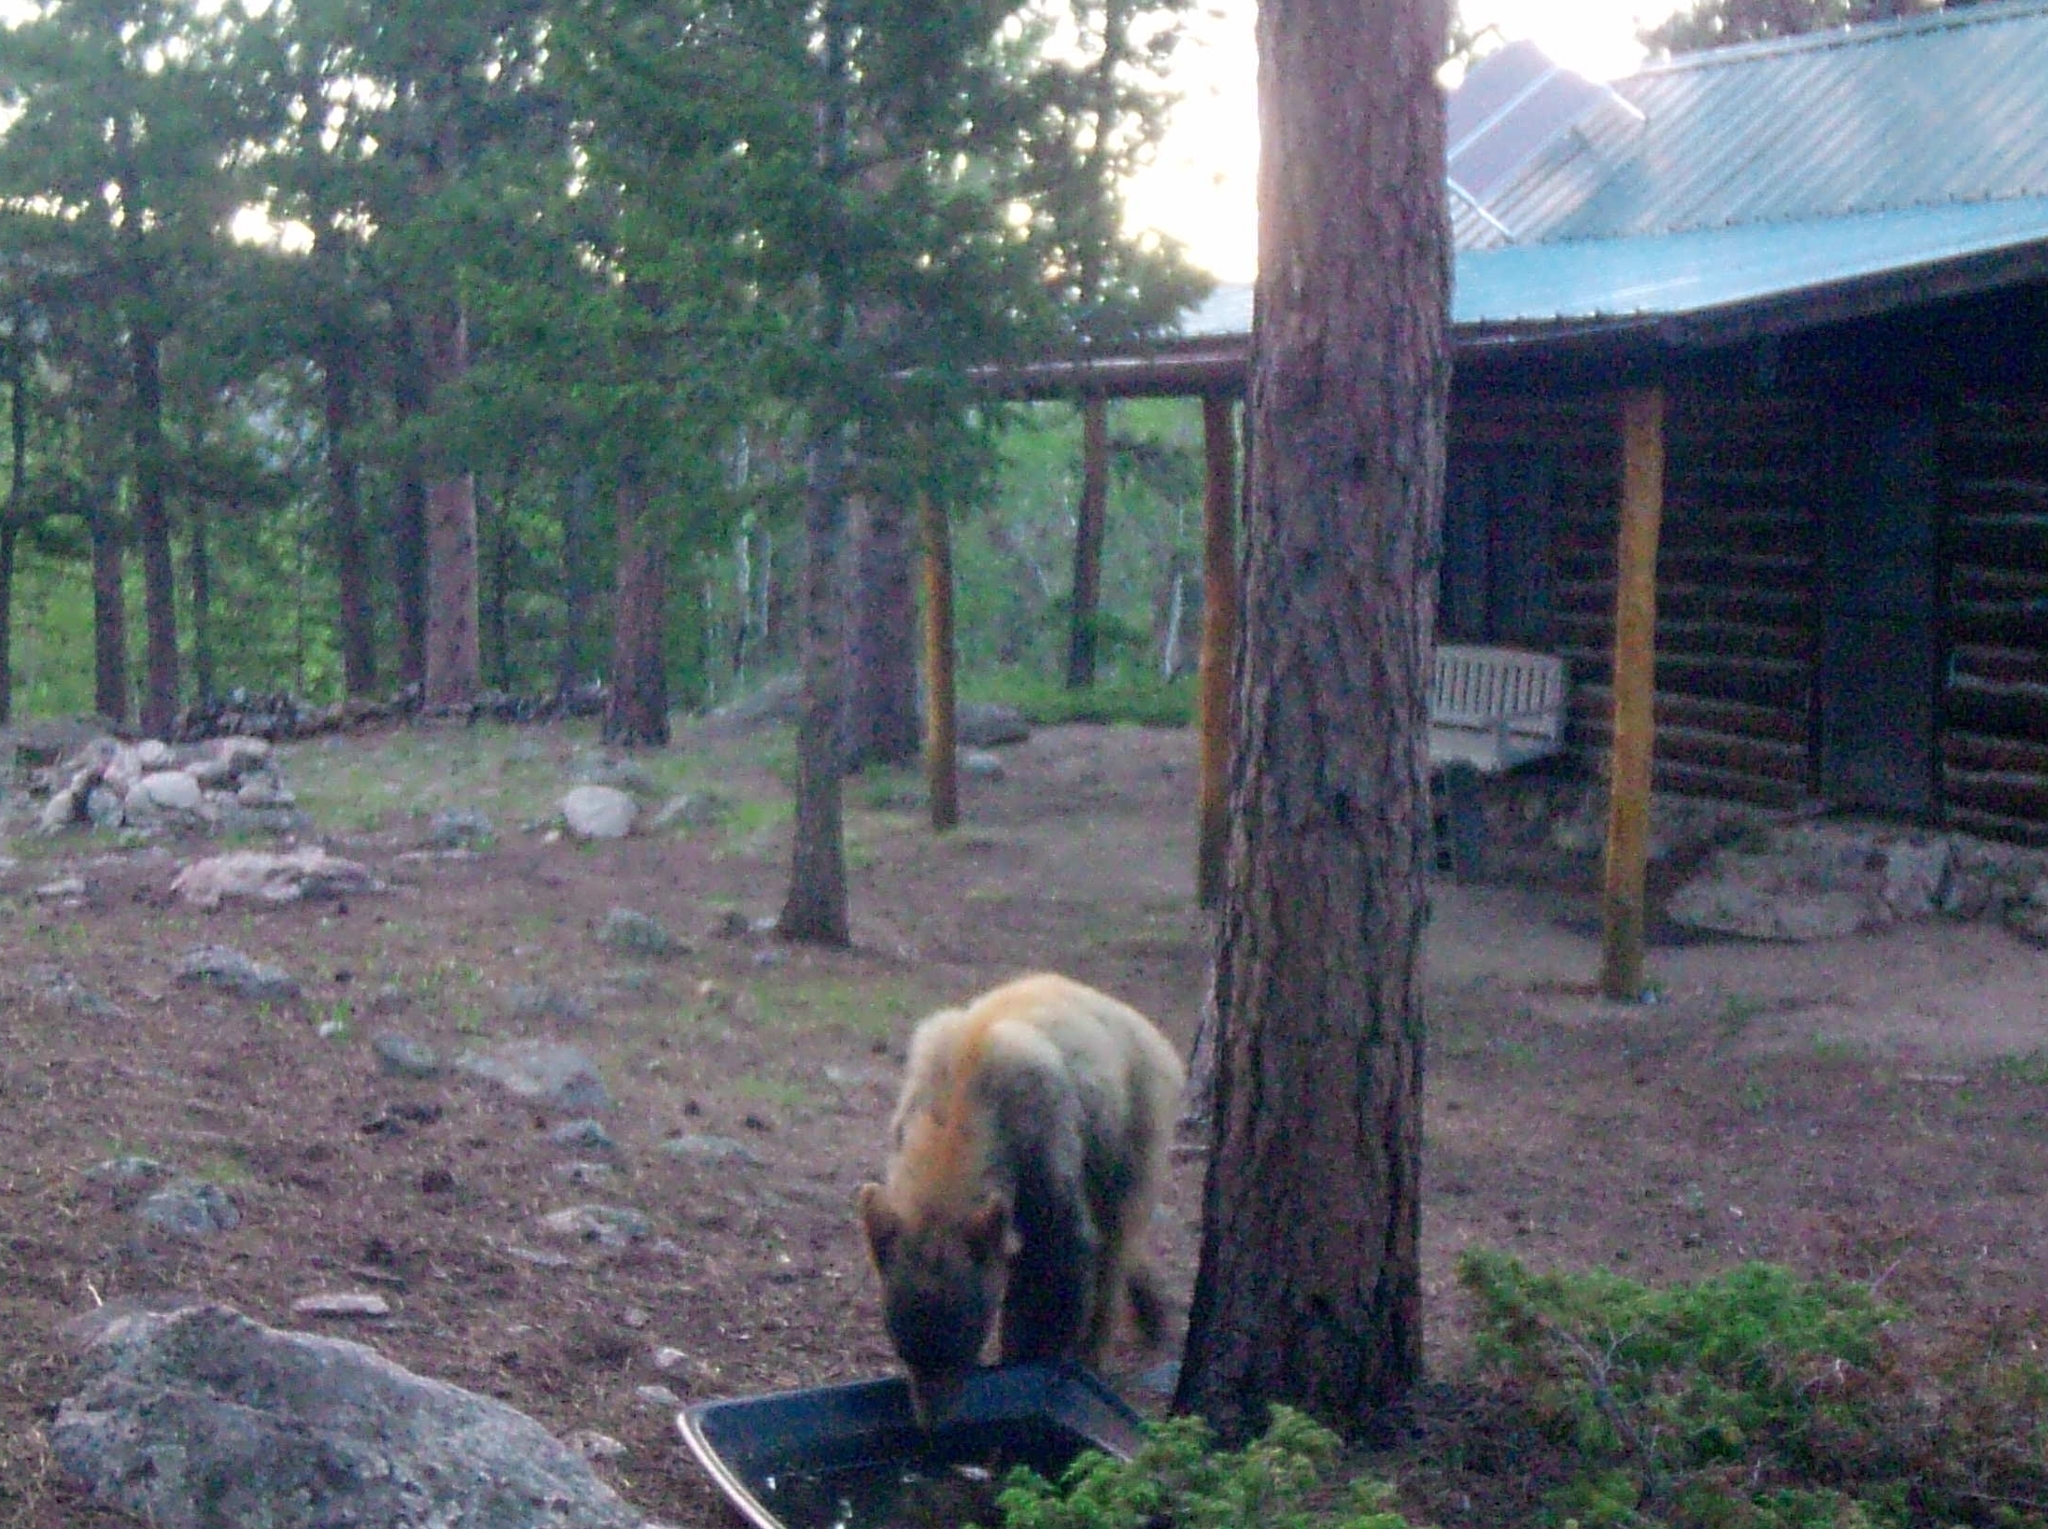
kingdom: Animalia
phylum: Chordata
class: Mammalia
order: Carnivora
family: Ursidae
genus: Ursus
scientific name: Ursus americanus
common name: American black bear
